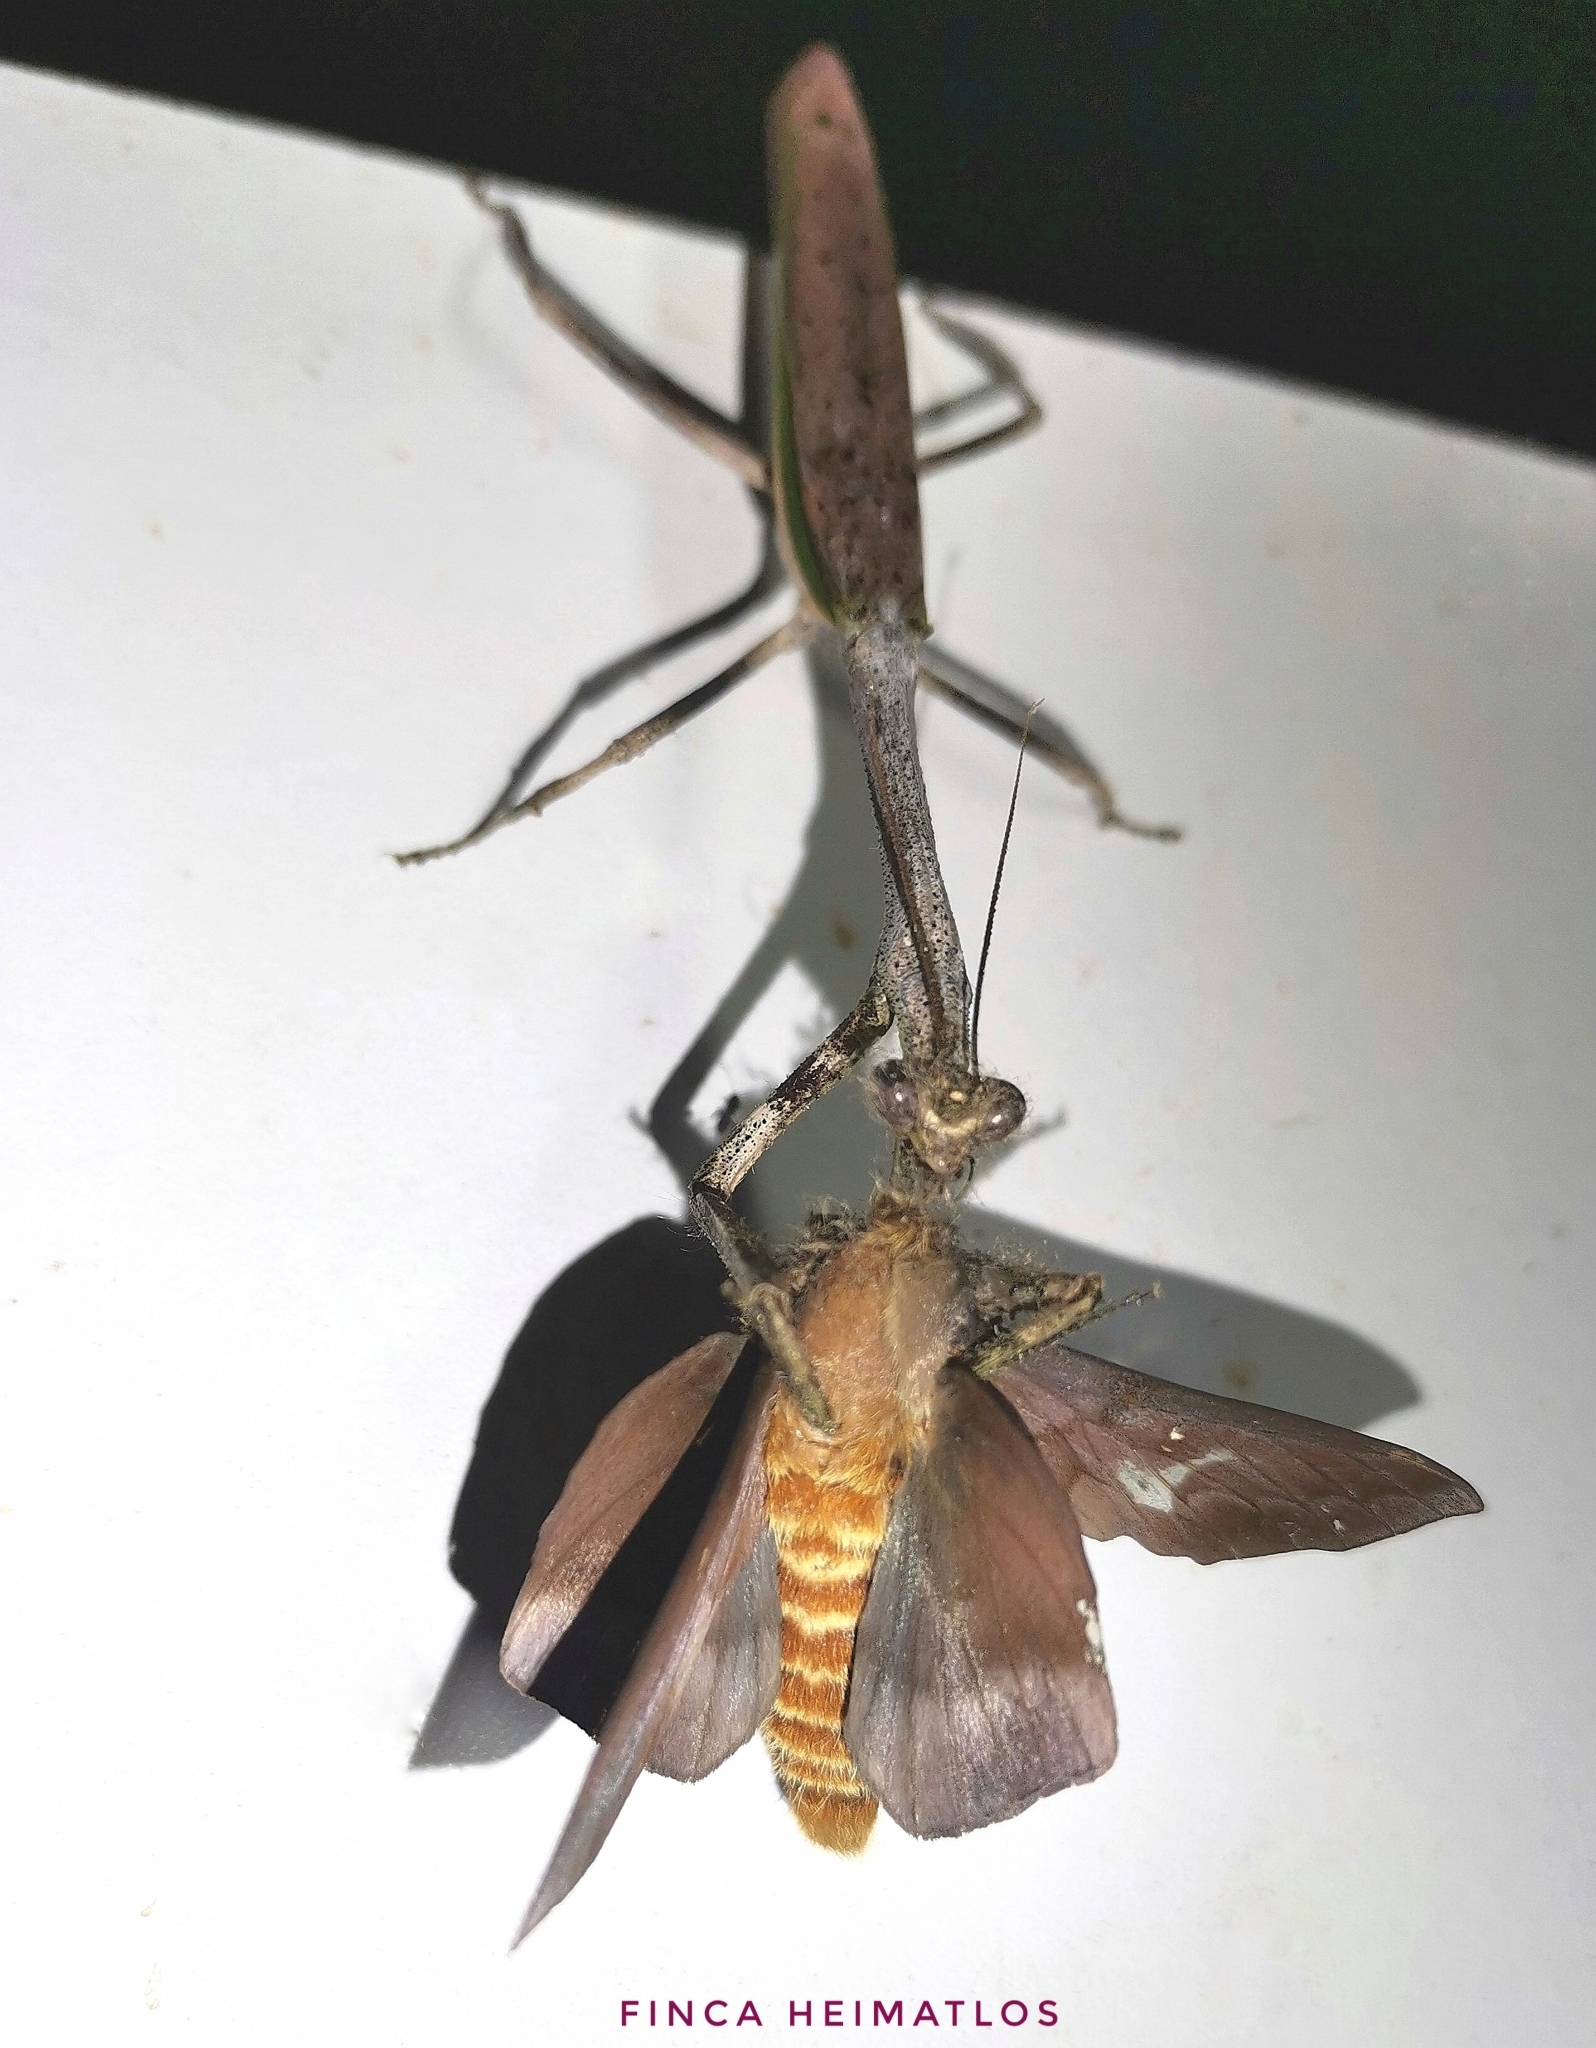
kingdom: Animalia
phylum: Arthropoda
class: Insecta
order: Mantodea
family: Mantidae
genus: Pseudovates
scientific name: Pseudovates brasiliensis
